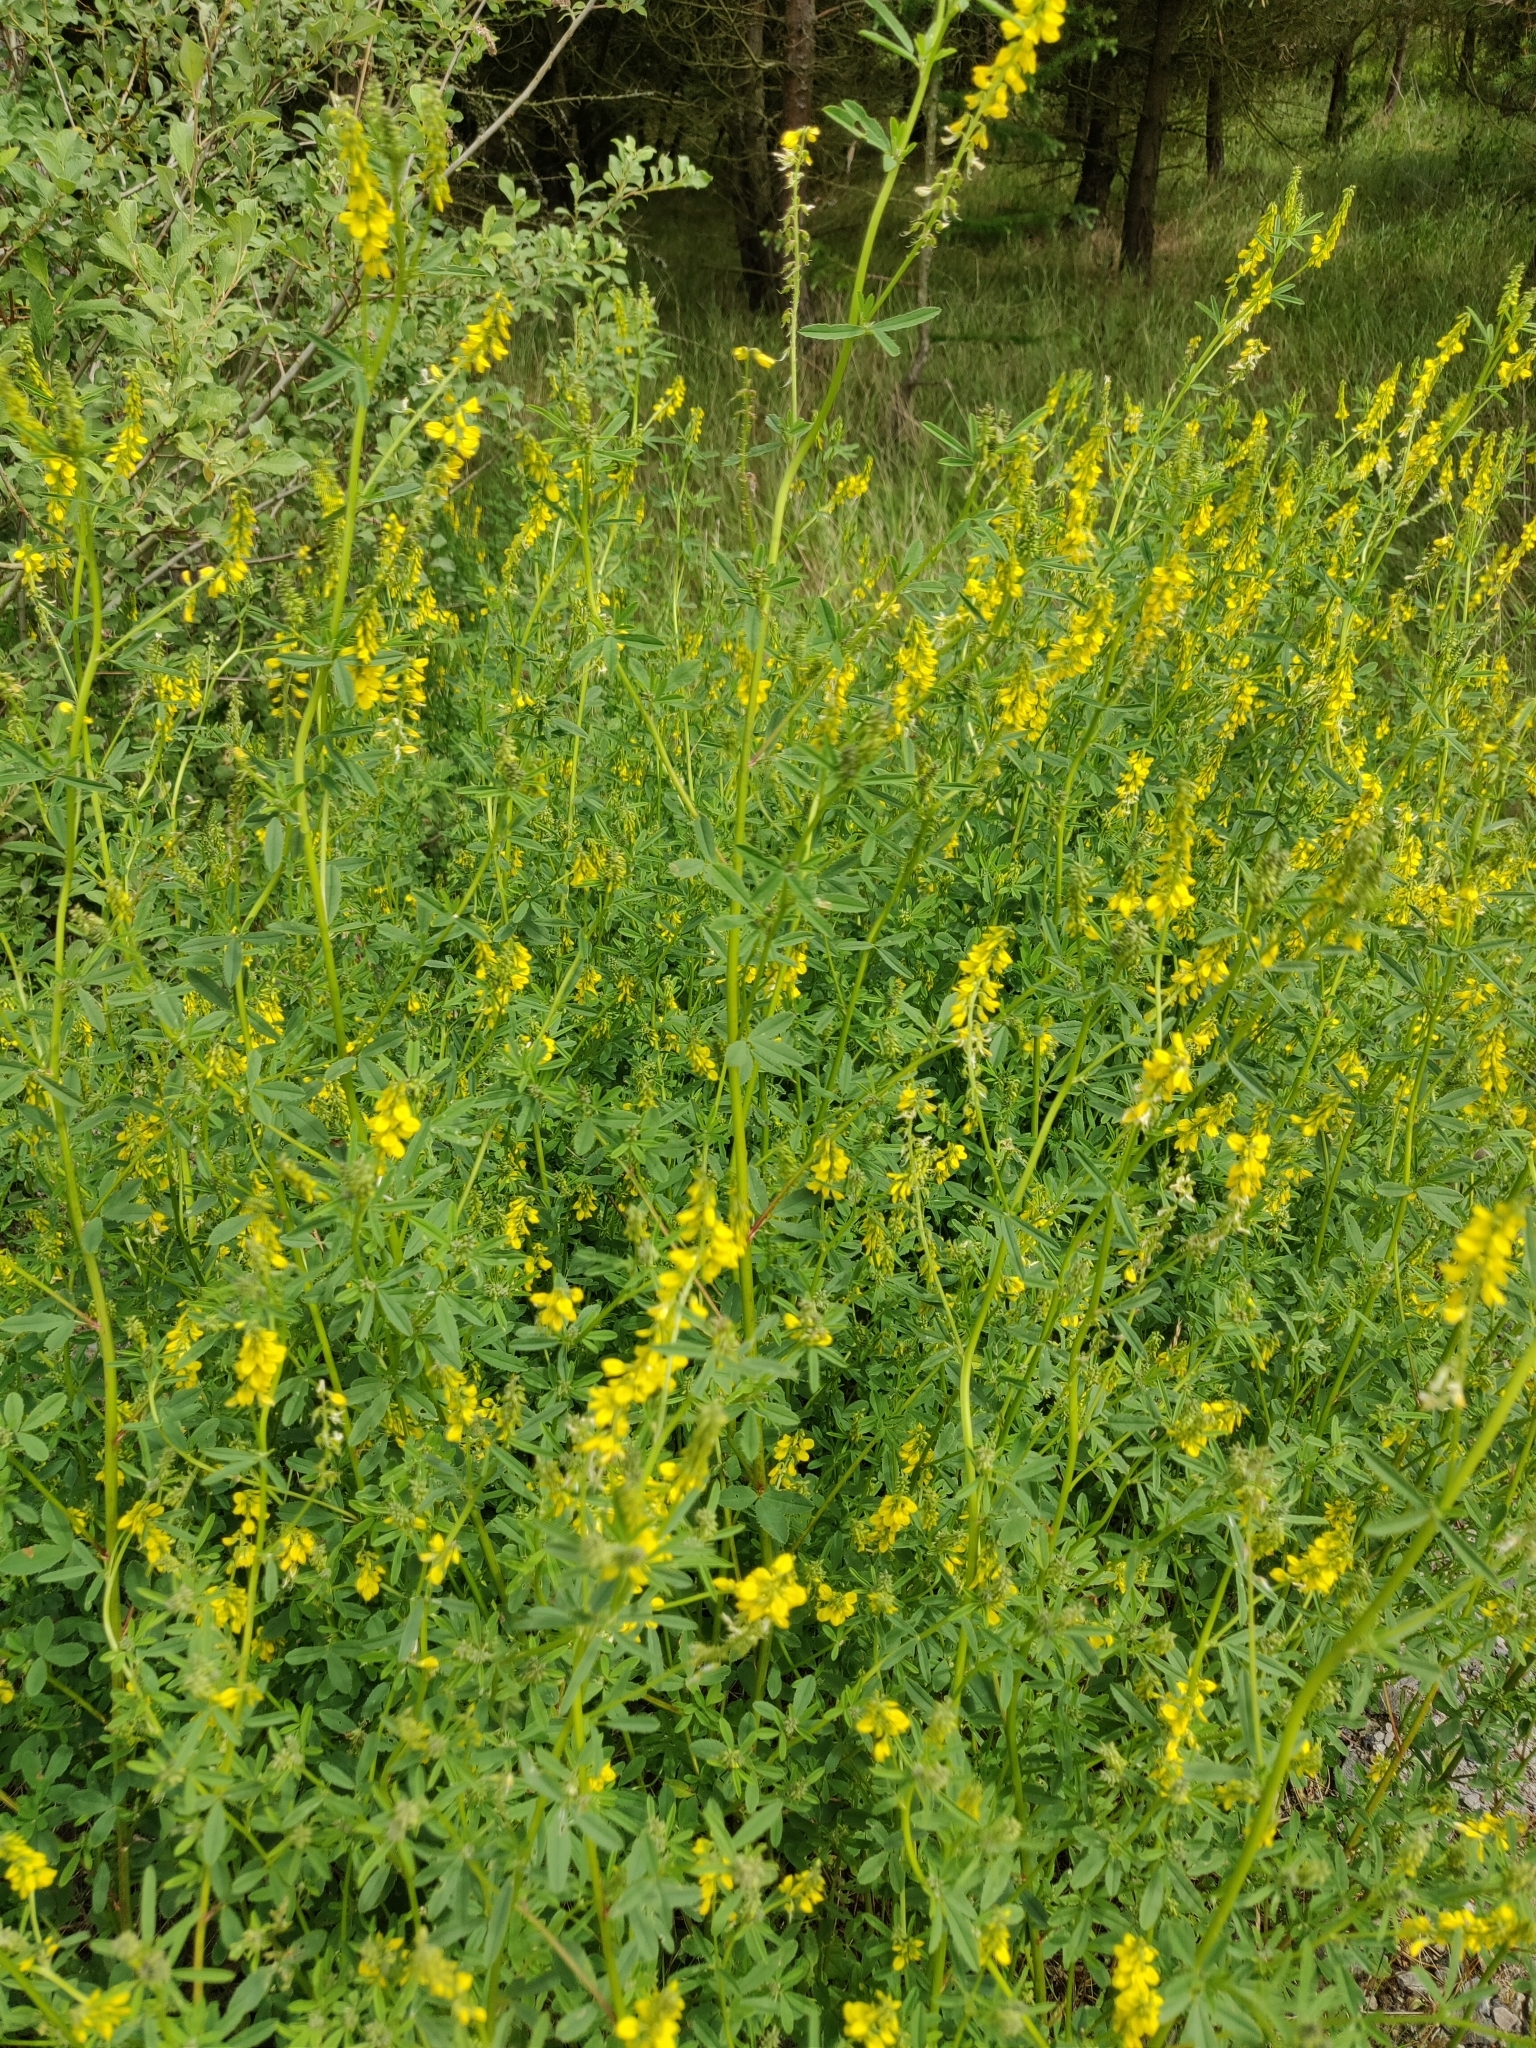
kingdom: Plantae
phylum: Tracheophyta
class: Magnoliopsida
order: Fabales
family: Fabaceae
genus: Melilotus
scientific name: Melilotus officinalis
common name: Sweetclover
